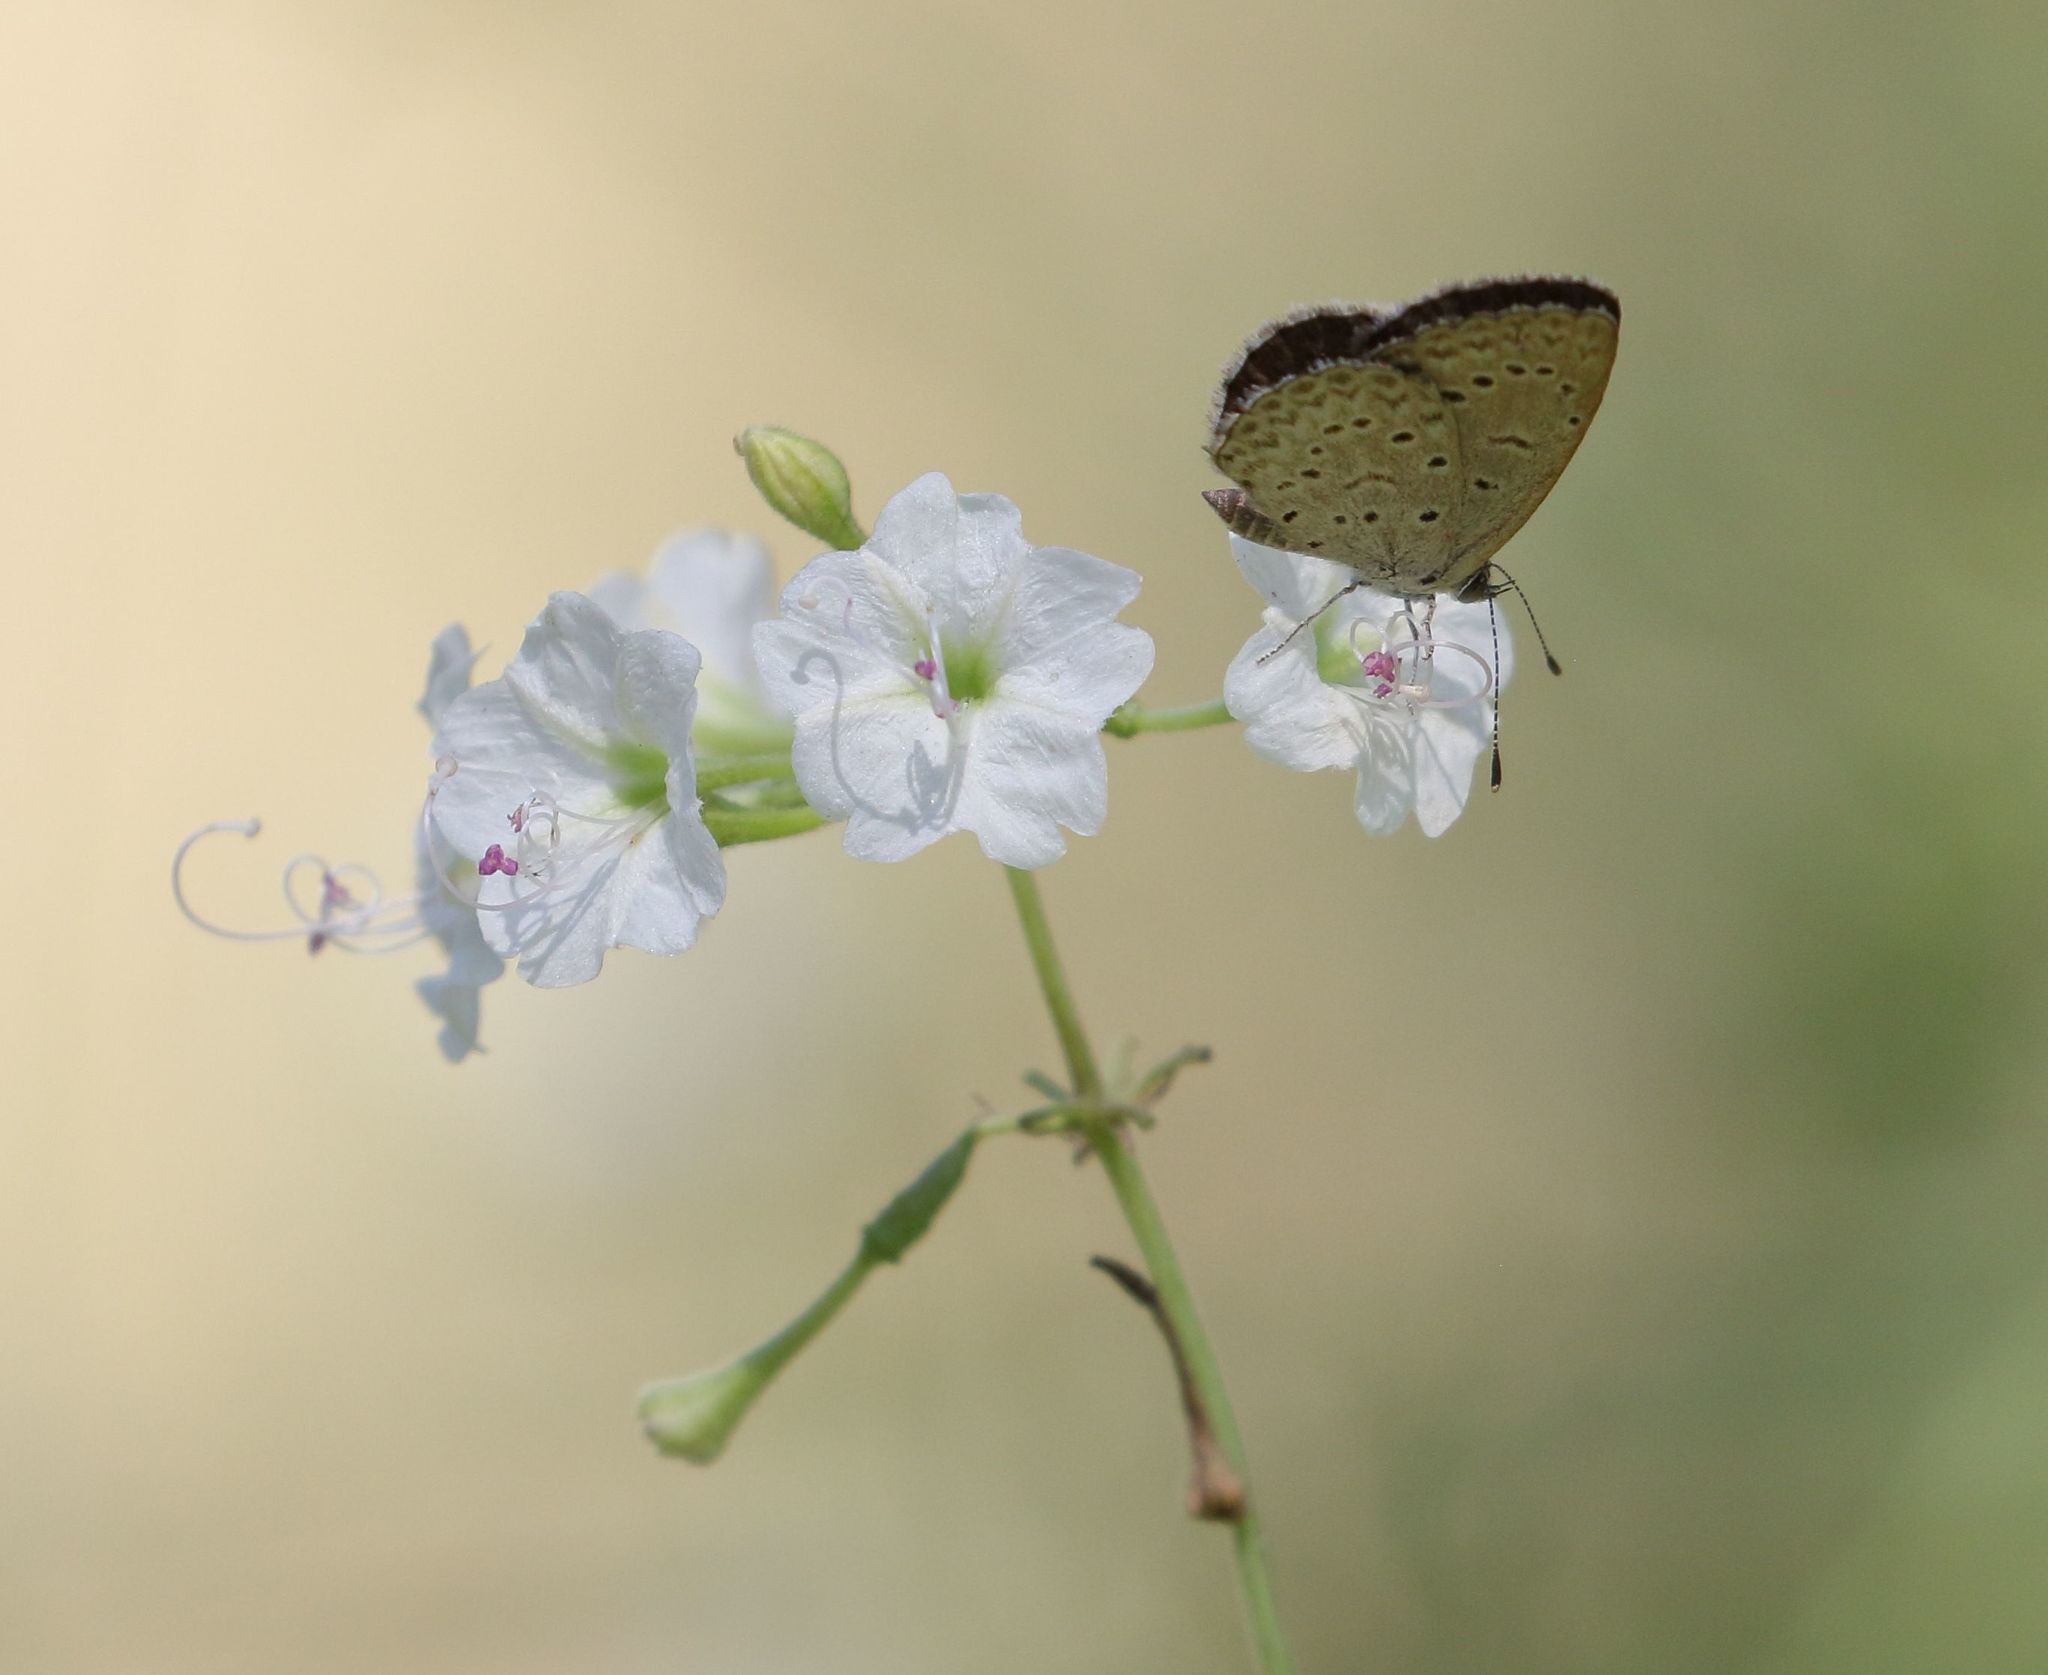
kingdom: Animalia
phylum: Arthropoda
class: Insecta
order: Lepidoptera
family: Lycaenidae
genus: Zizeeria
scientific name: Zizeeria knysna
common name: African grass blue
